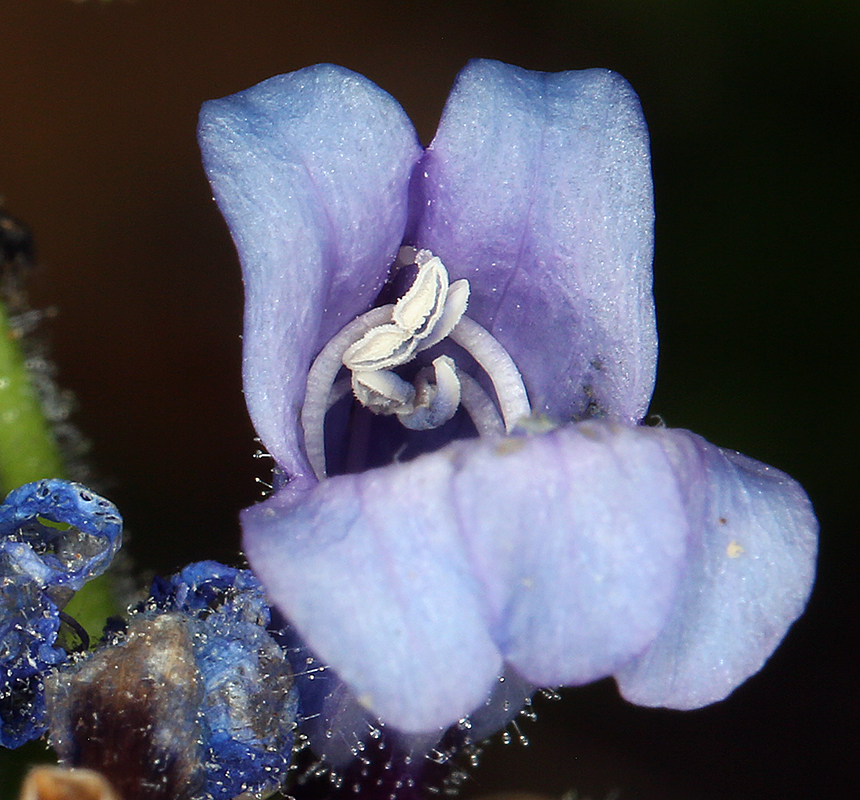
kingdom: Plantae
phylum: Tracheophyta
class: Magnoliopsida
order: Lamiales
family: Plantaginaceae
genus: Penstemon
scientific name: Penstemon anguineus
